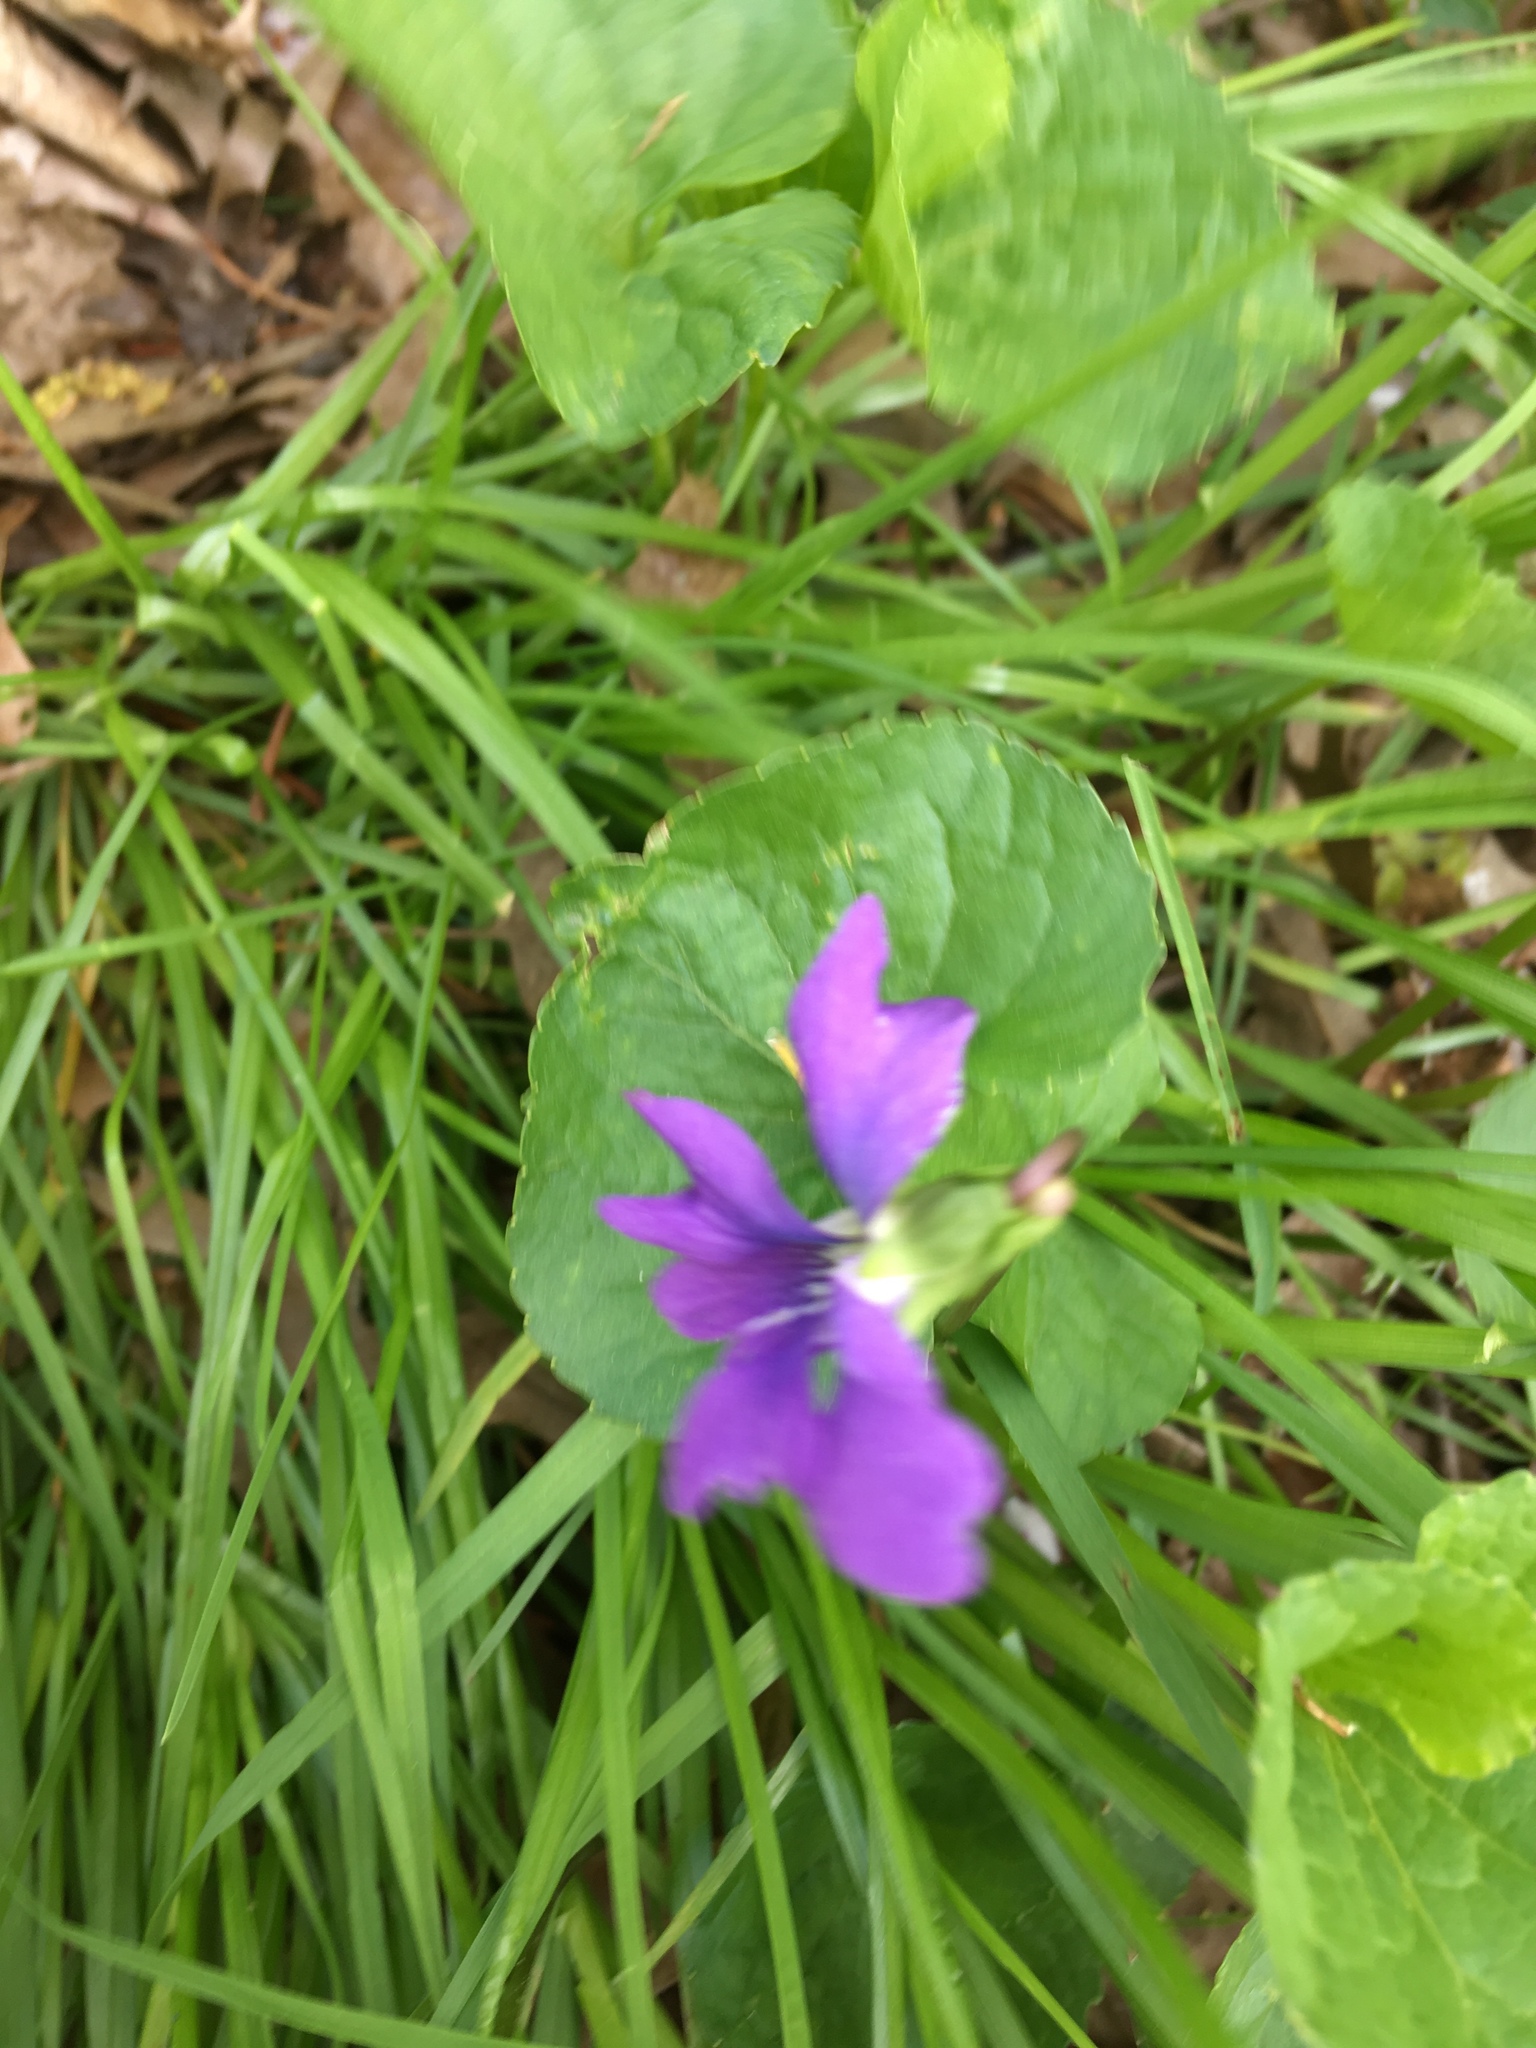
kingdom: Plantae
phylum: Tracheophyta
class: Magnoliopsida
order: Malpighiales
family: Violaceae
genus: Viola
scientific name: Viola sororia
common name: Dooryard violet
